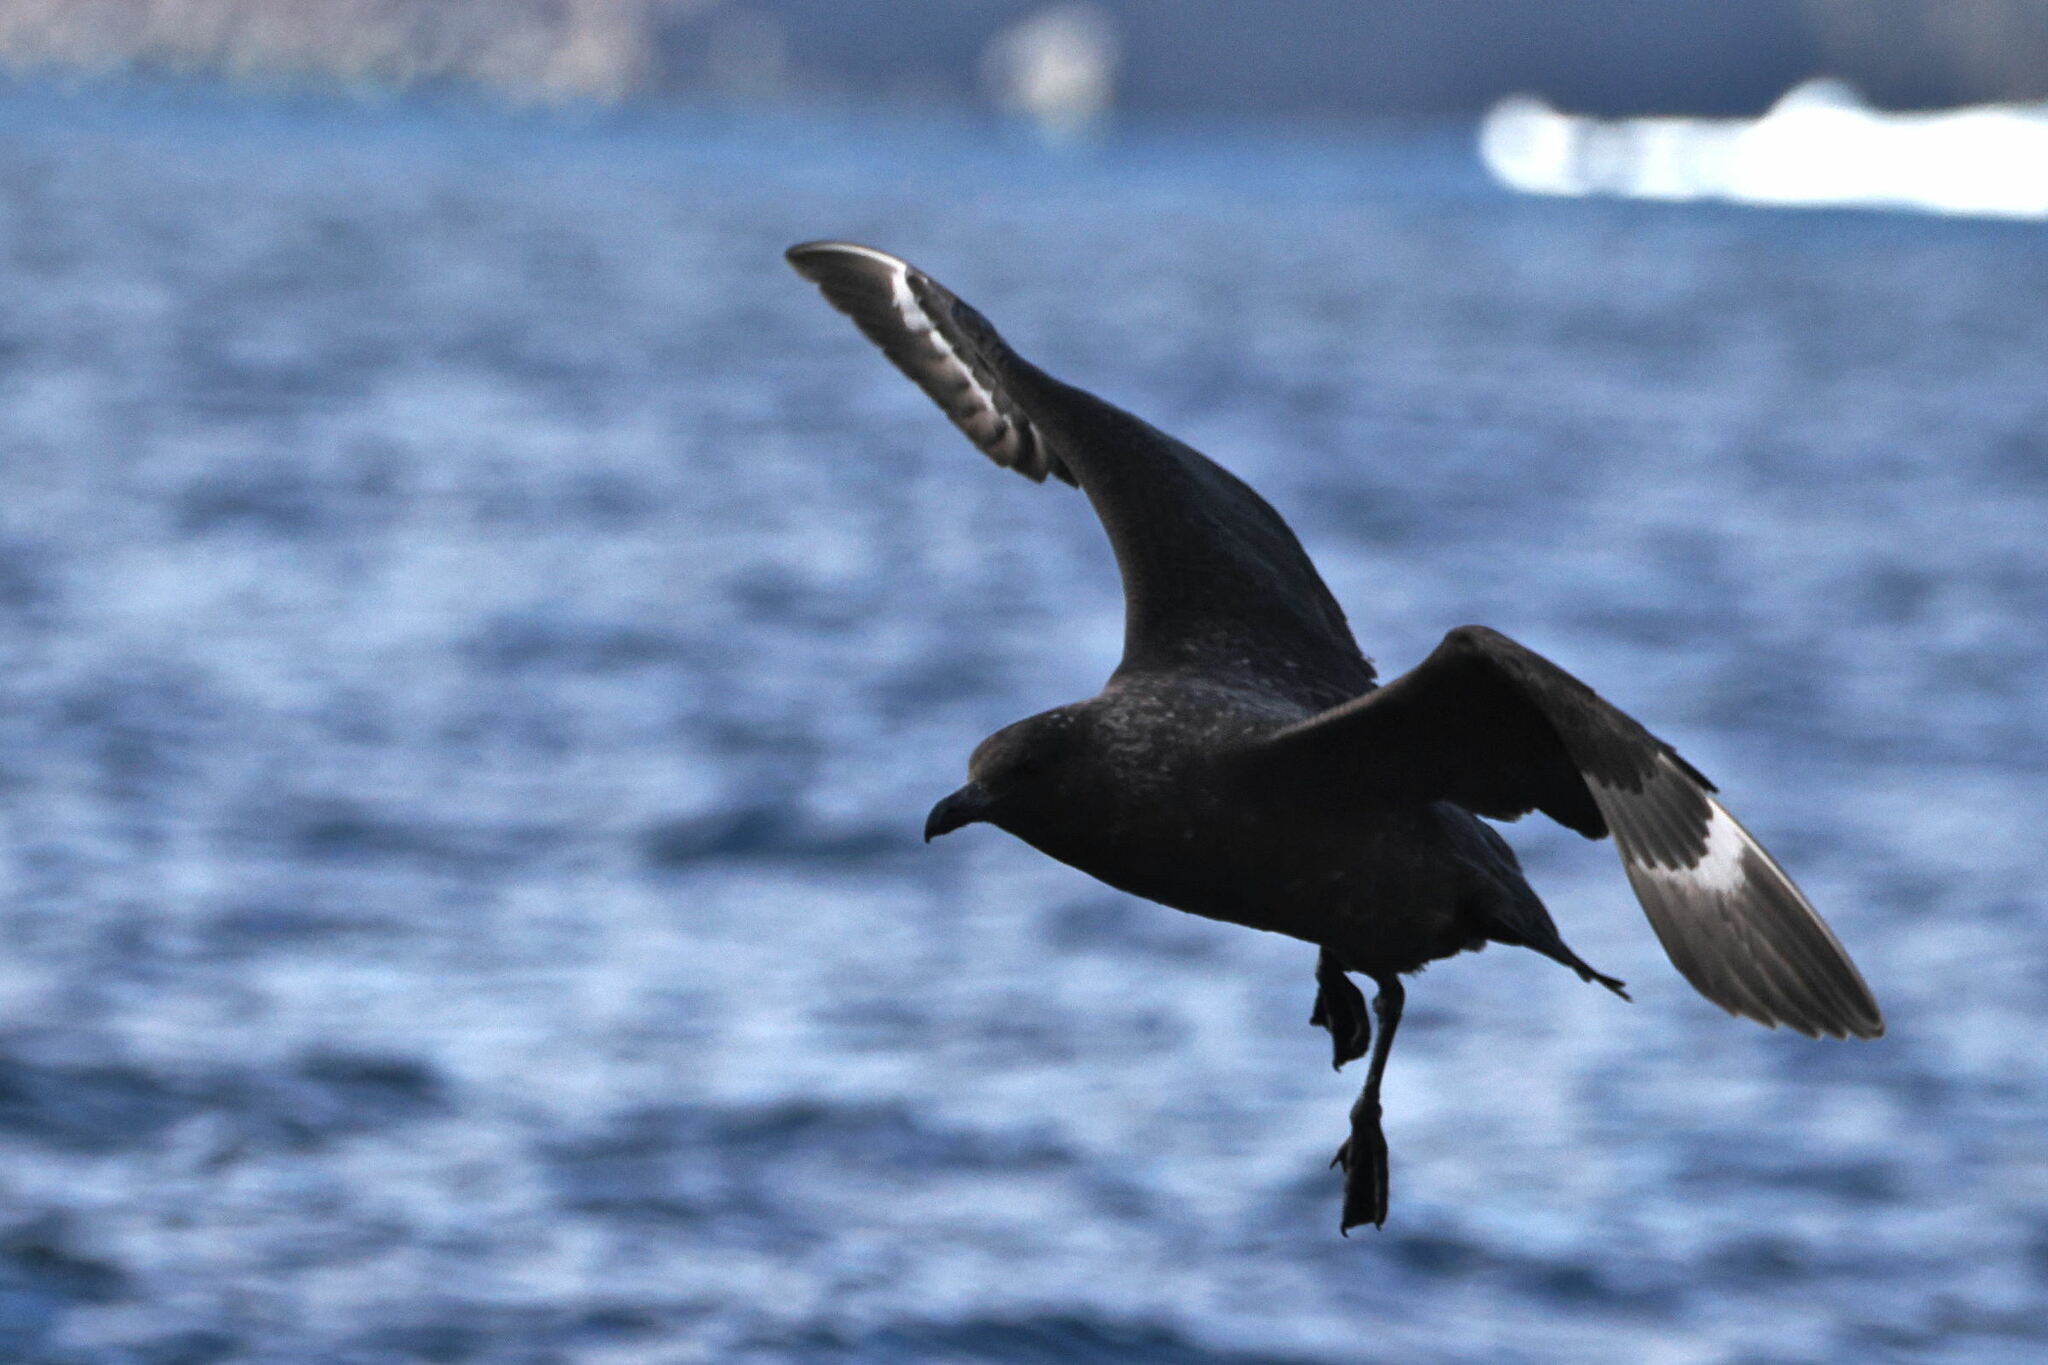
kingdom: Animalia
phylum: Chordata
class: Aves
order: Charadriiformes
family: Stercorariidae
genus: Stercorarius
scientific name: Stercorarius antarcticus
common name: Brown skua
